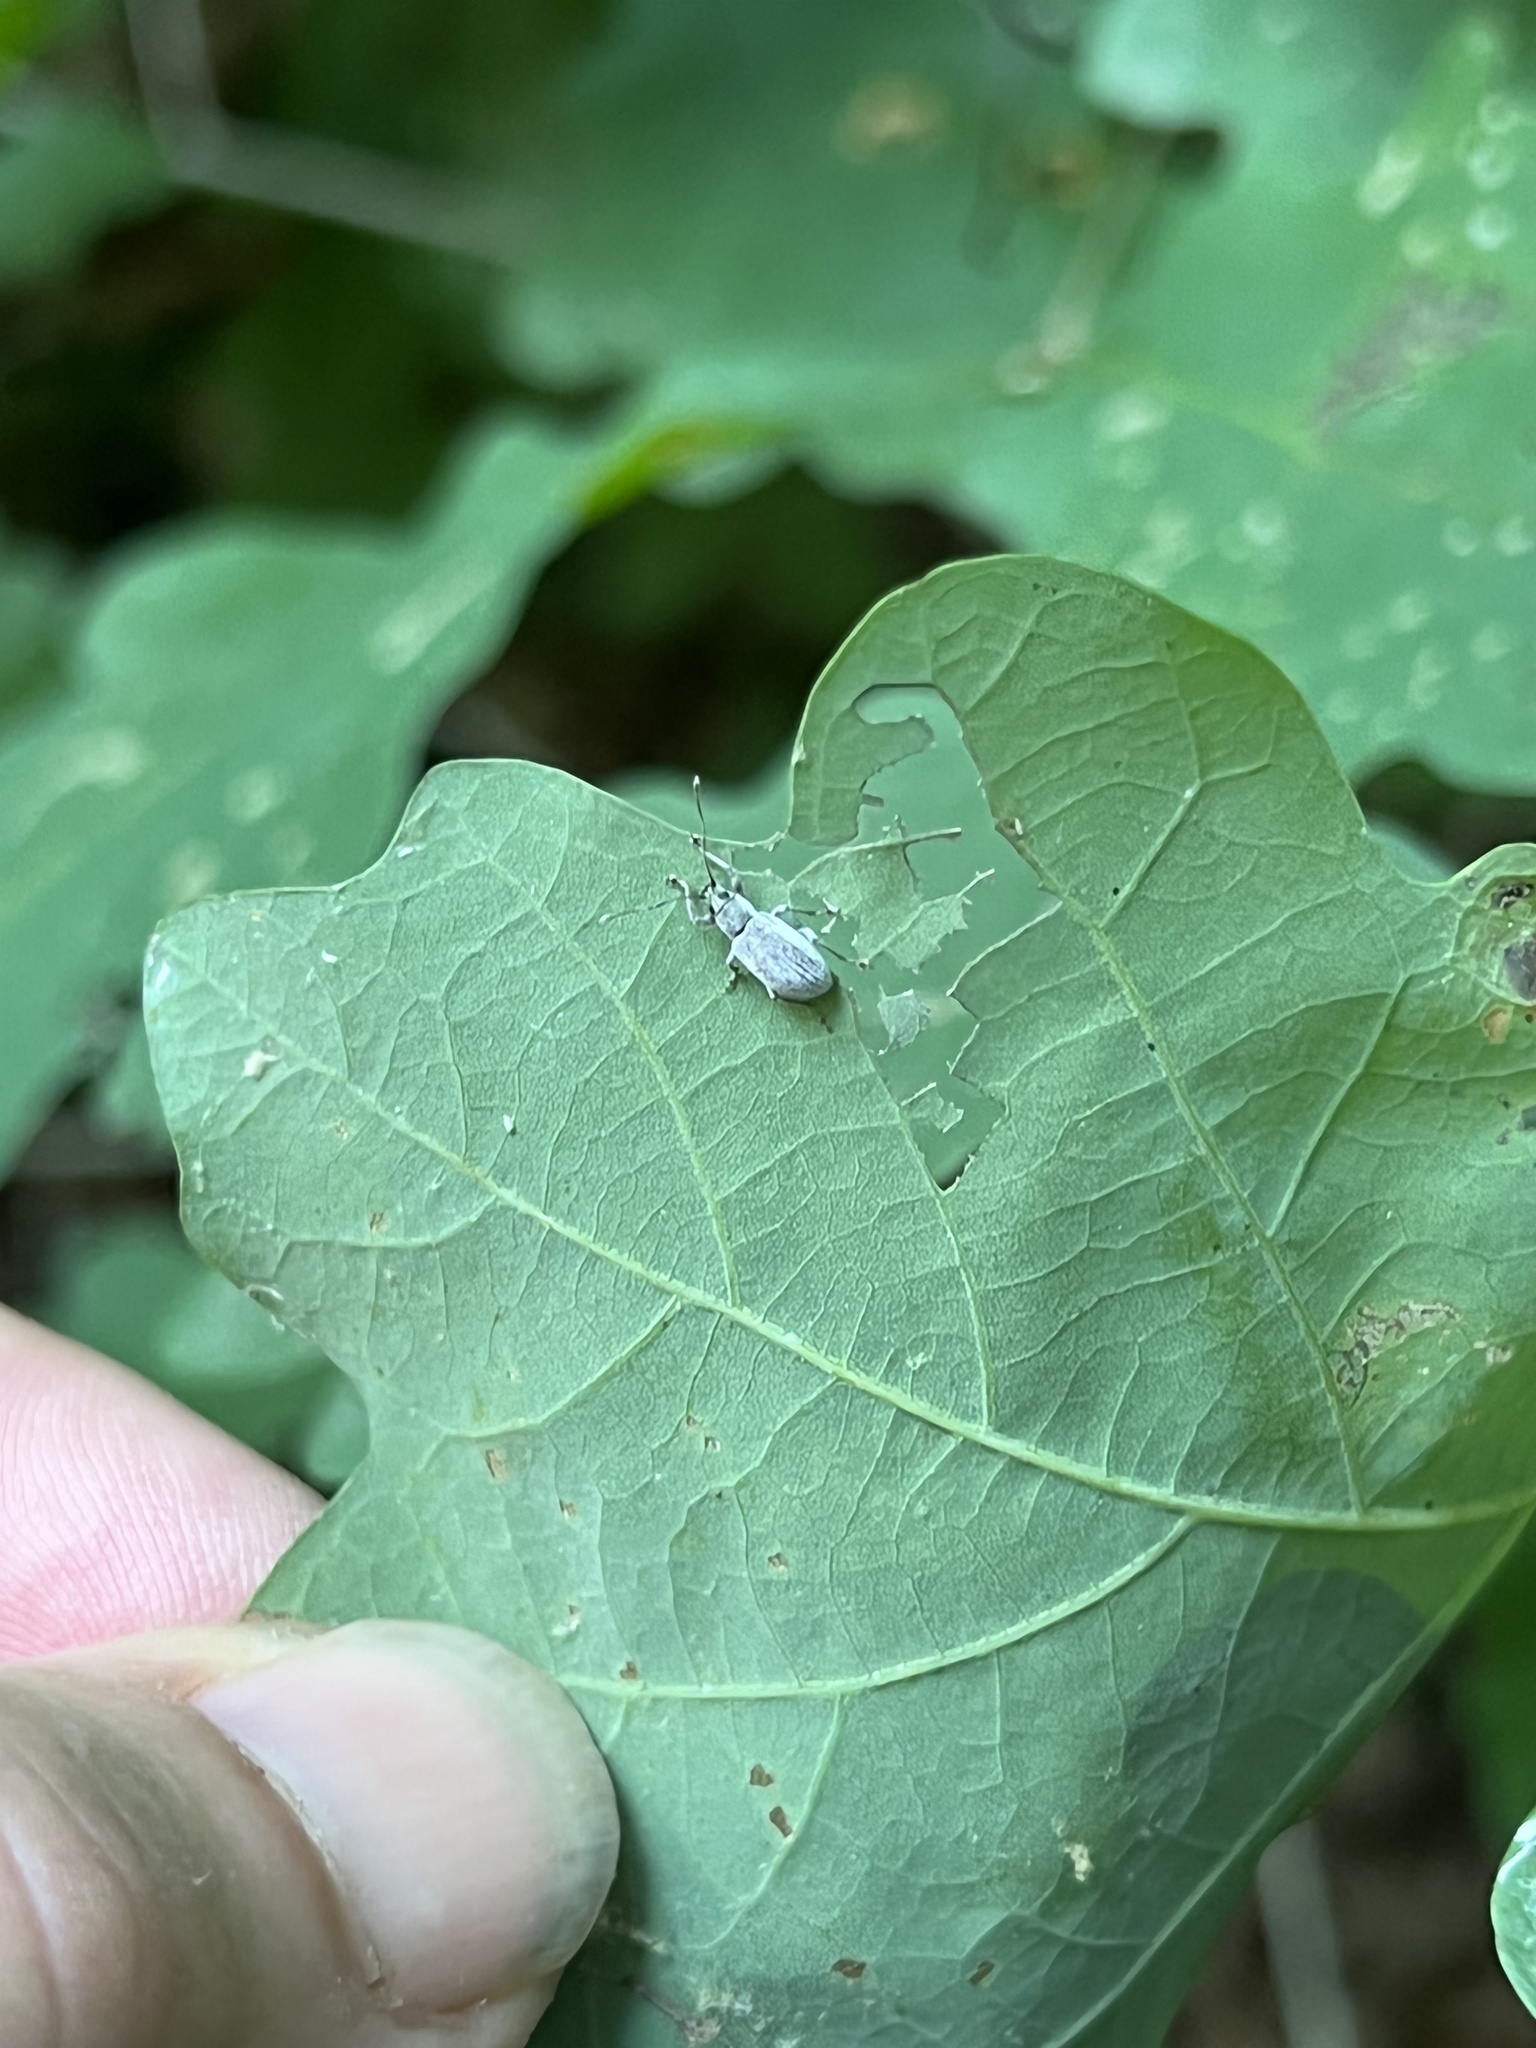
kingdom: Animalia
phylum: Arthropoda
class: Insecta
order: Coleoptera
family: Curculionidae
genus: Cyrtepistomus
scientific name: Cyrtepistomus castaneus
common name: Weevil
